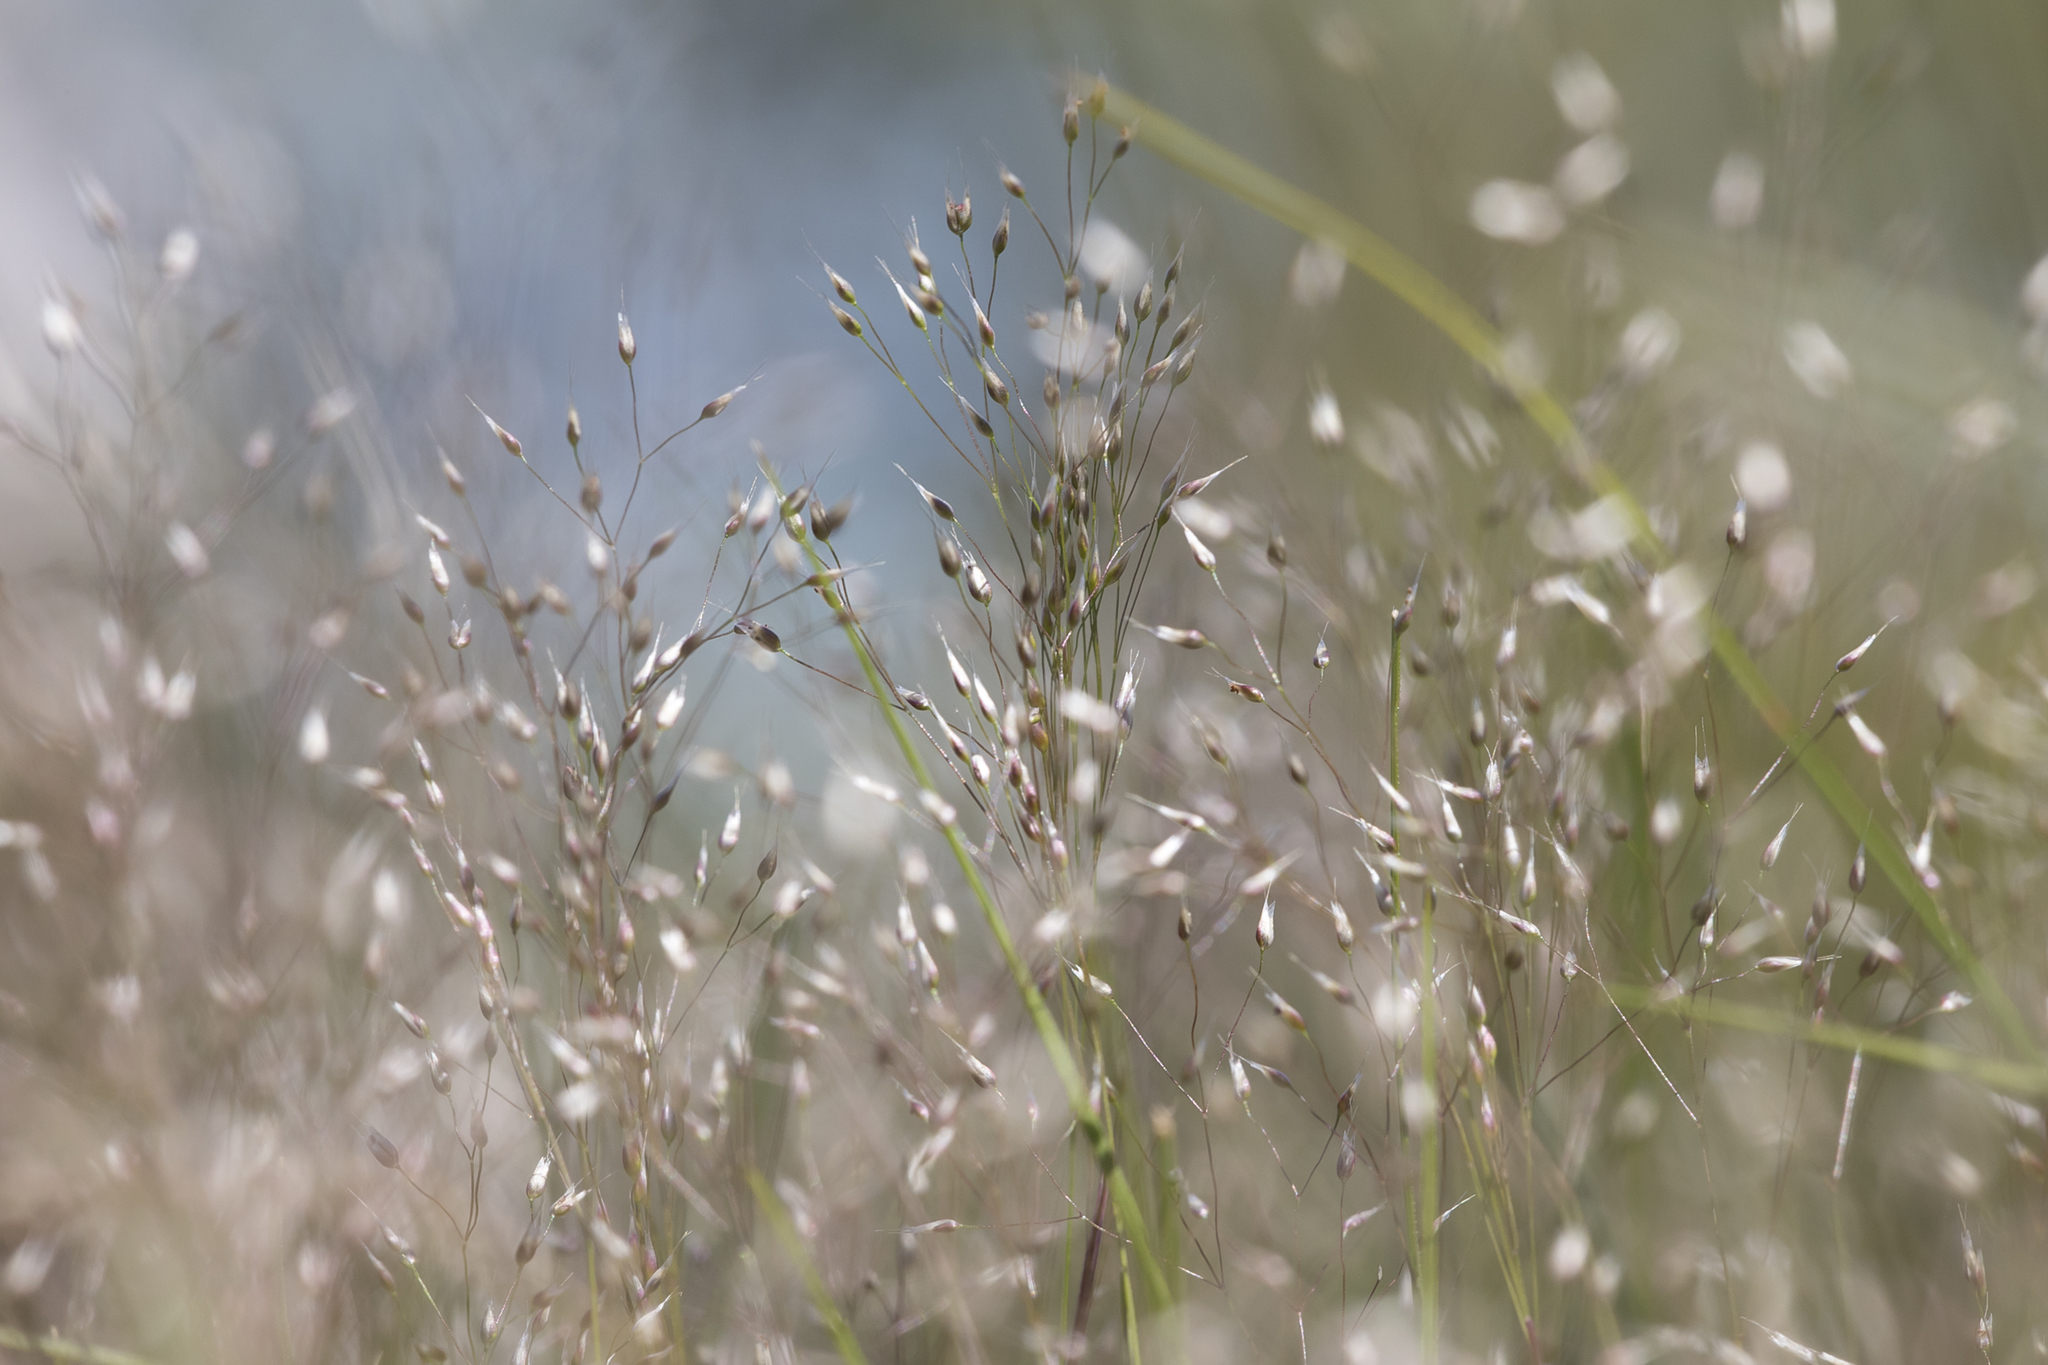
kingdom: Plantae
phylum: Tracheophyta
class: Liliopsida
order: Poales
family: Poaceae
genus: Aira
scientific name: Aira cupaniana
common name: Silver hairgrass
